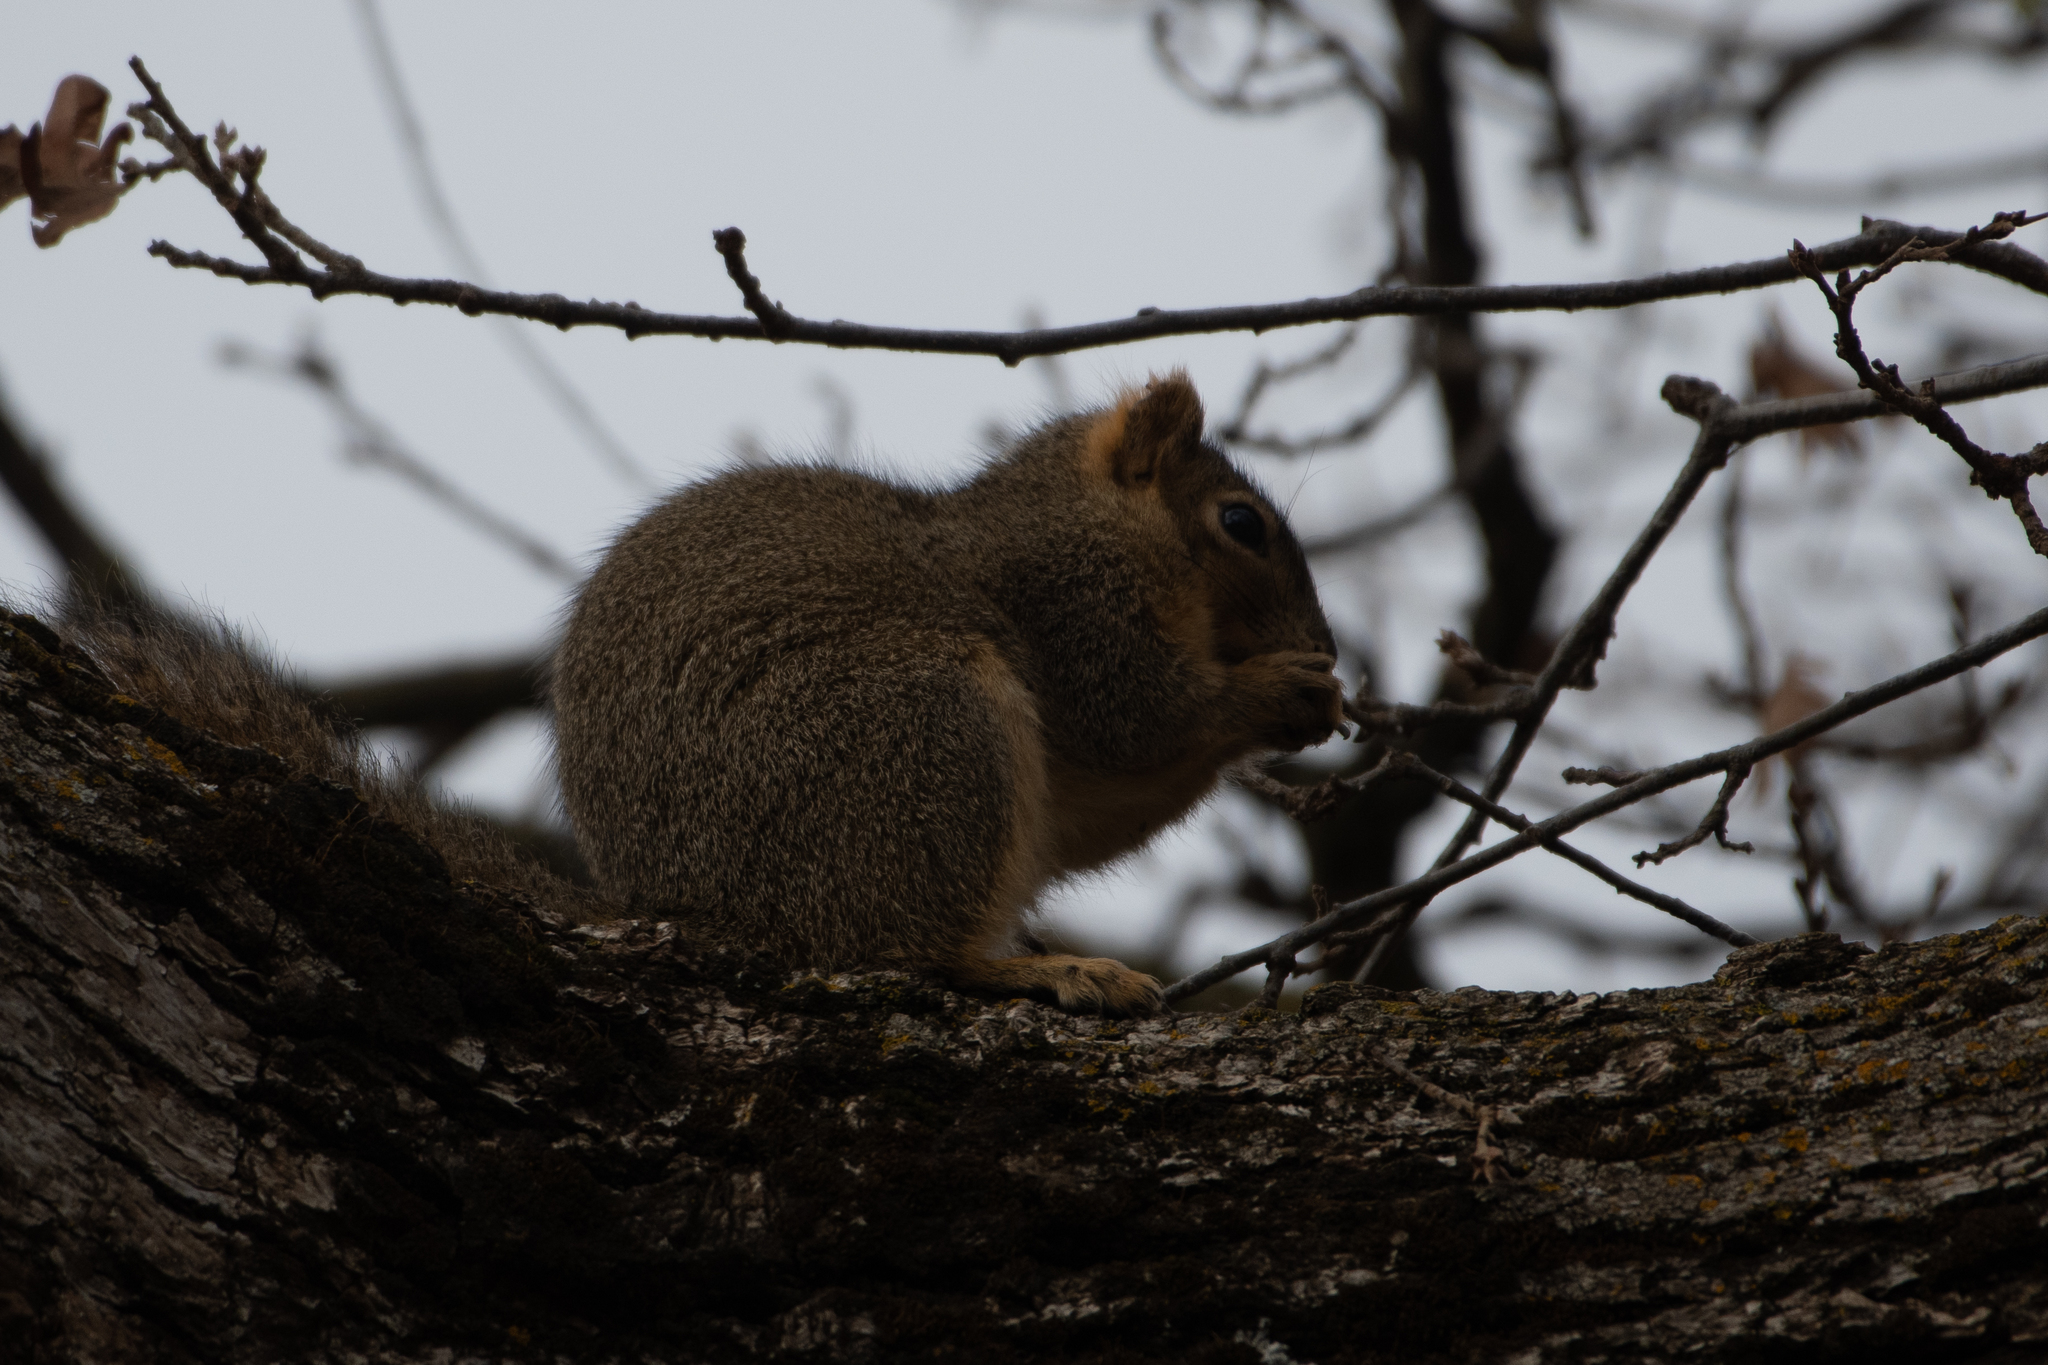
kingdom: Animalia
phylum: Chordata
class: Mammalia
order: Rodentia
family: Sciuridae
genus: Sciurus
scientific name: Sciurus niger
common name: Fox squirrel
